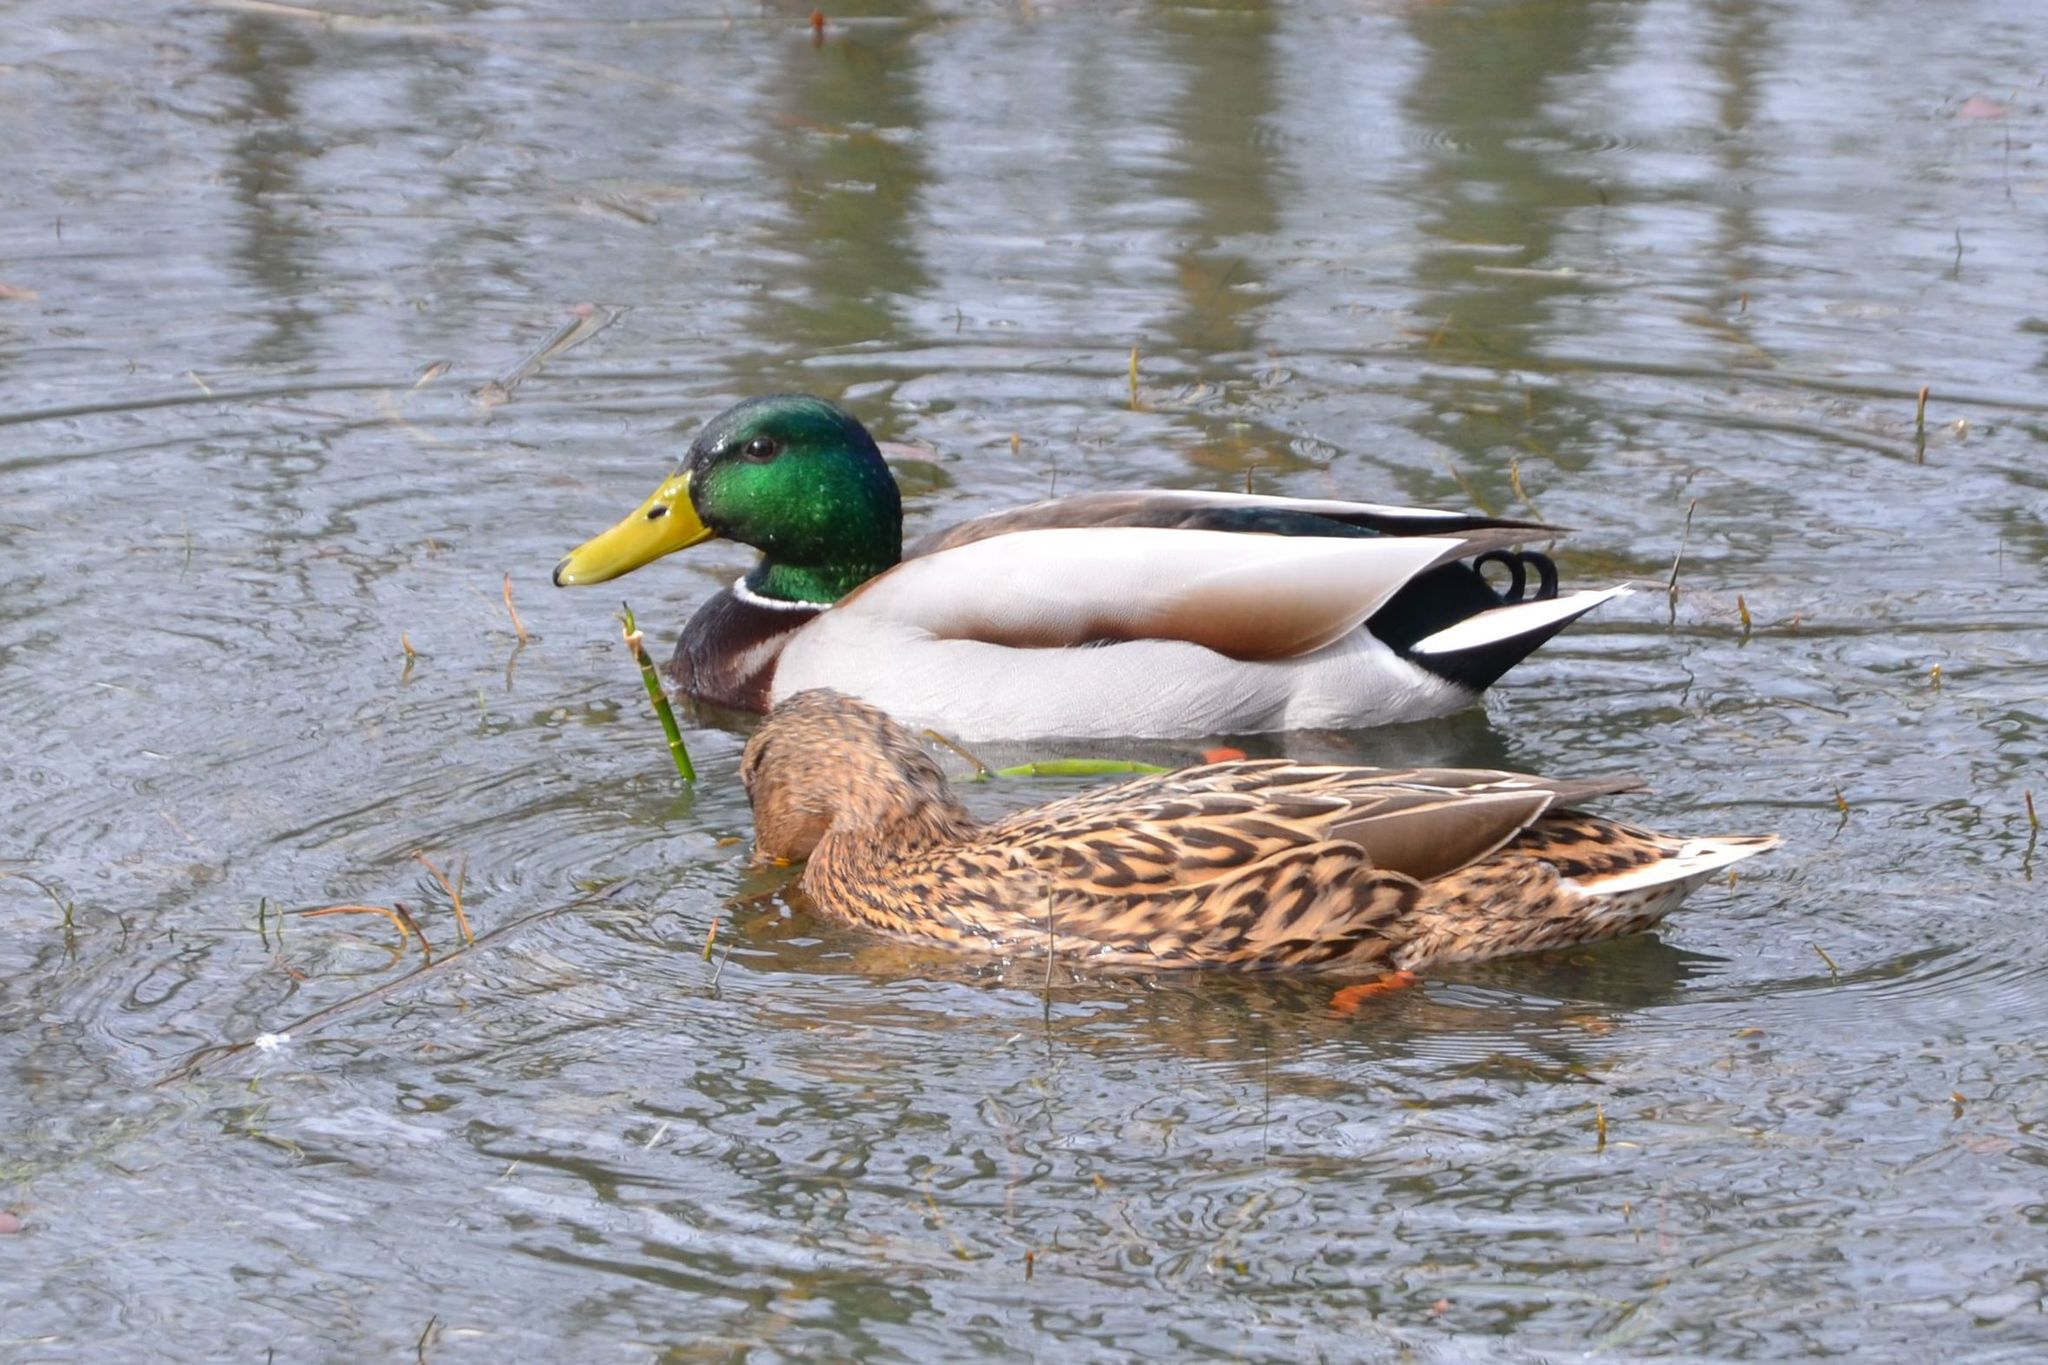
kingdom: Animalia
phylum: Chordata
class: Aves
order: Anseriformes
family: Anatidae
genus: Anas
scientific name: Anas platyrhynchos
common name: Mallard
